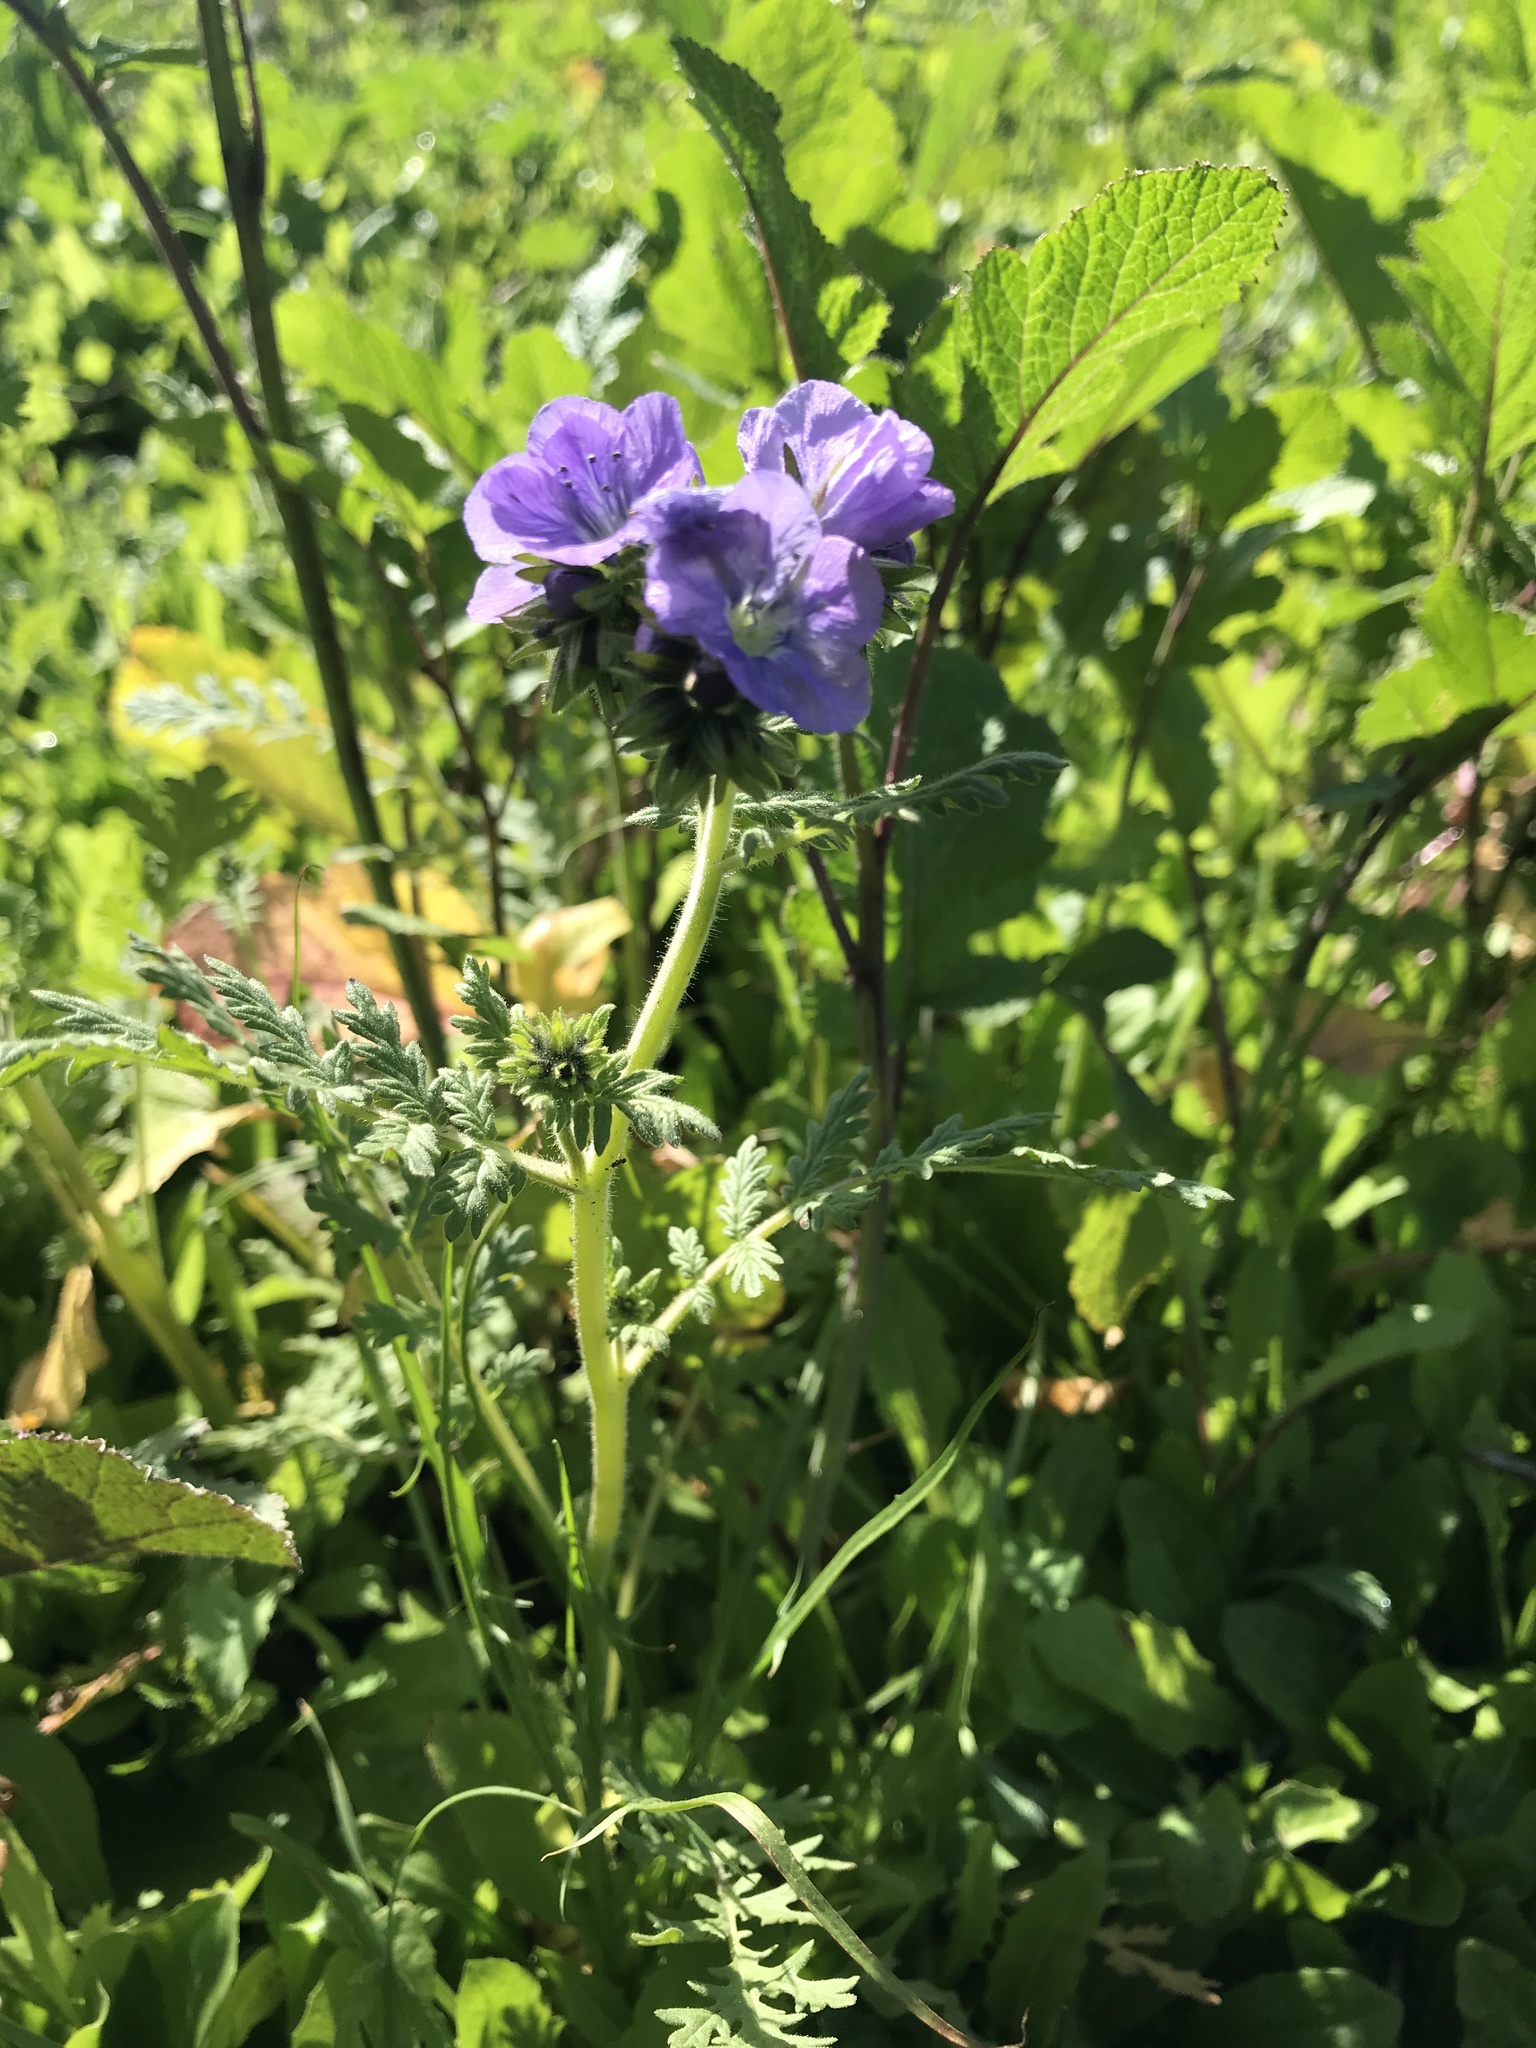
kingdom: Plantae
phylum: Tracheophyta
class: Magnoliopsida
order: Boraginales
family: Hydrophyllaceae
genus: Phacelia
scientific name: Phacelia distans
